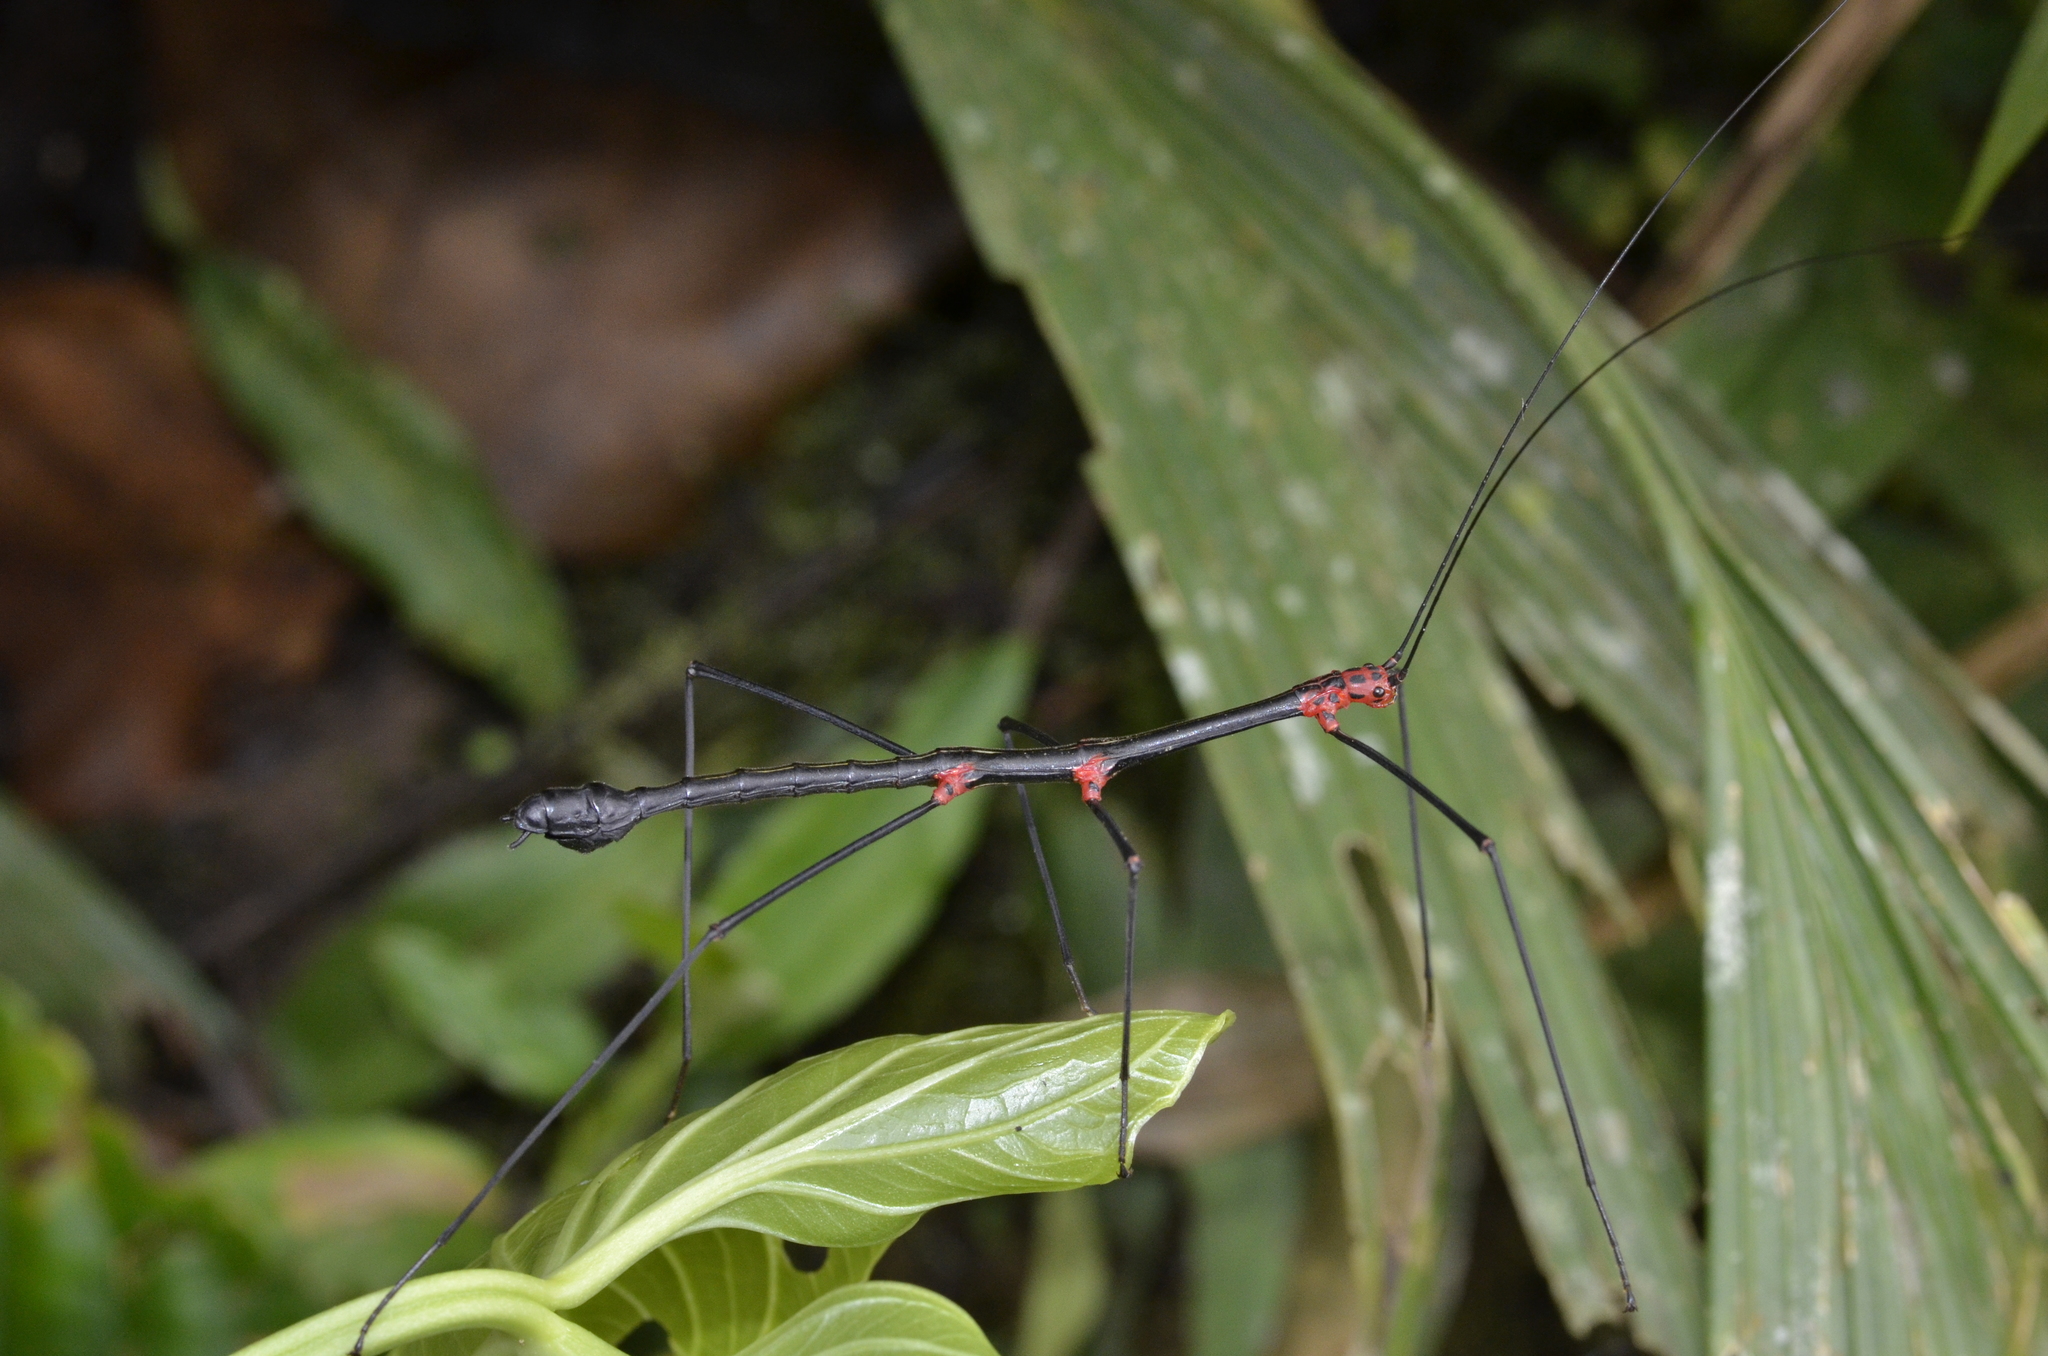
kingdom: Animalia
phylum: Arthropoda
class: Insecta
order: Phasmida
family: Diapheromeridae
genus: Oreophoetes
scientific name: Oreophoetes topoense
